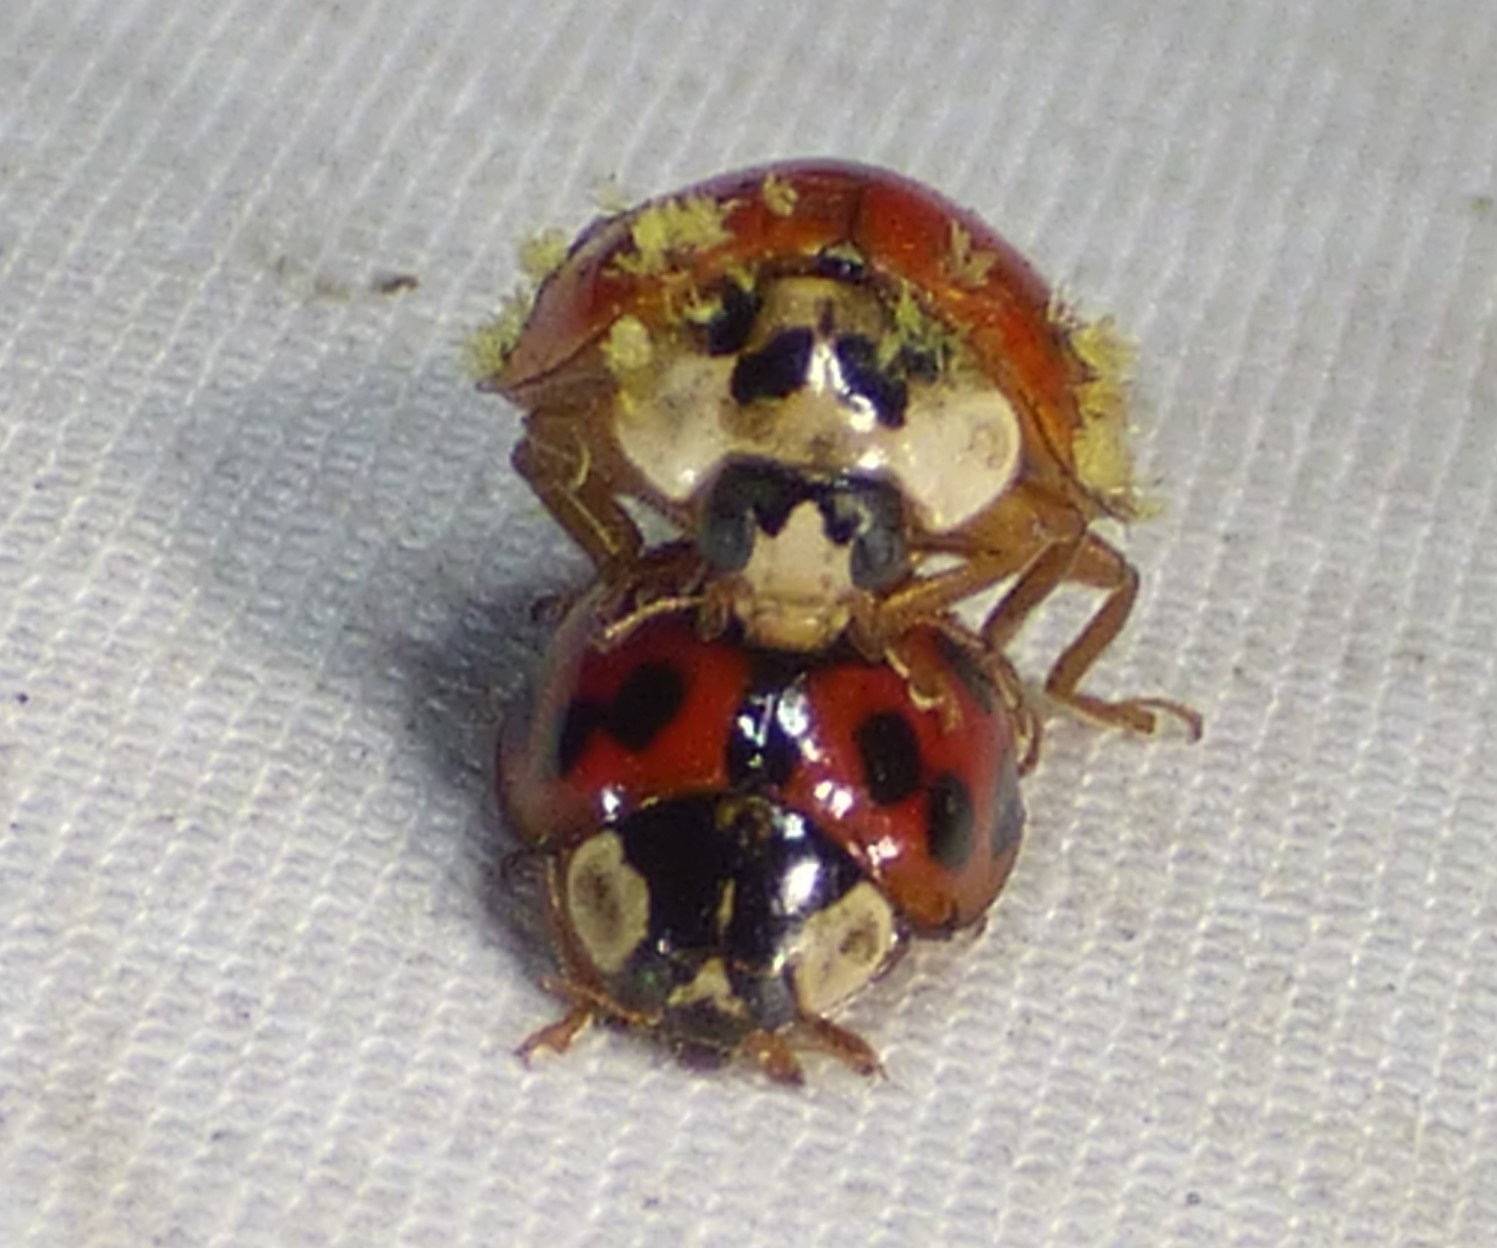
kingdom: Animalia
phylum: Arthropoda
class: Insecta
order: Coleoptera
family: Coccinellidae
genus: Harmonia
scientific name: Harmonia axyridis
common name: Harlequin ladybird
